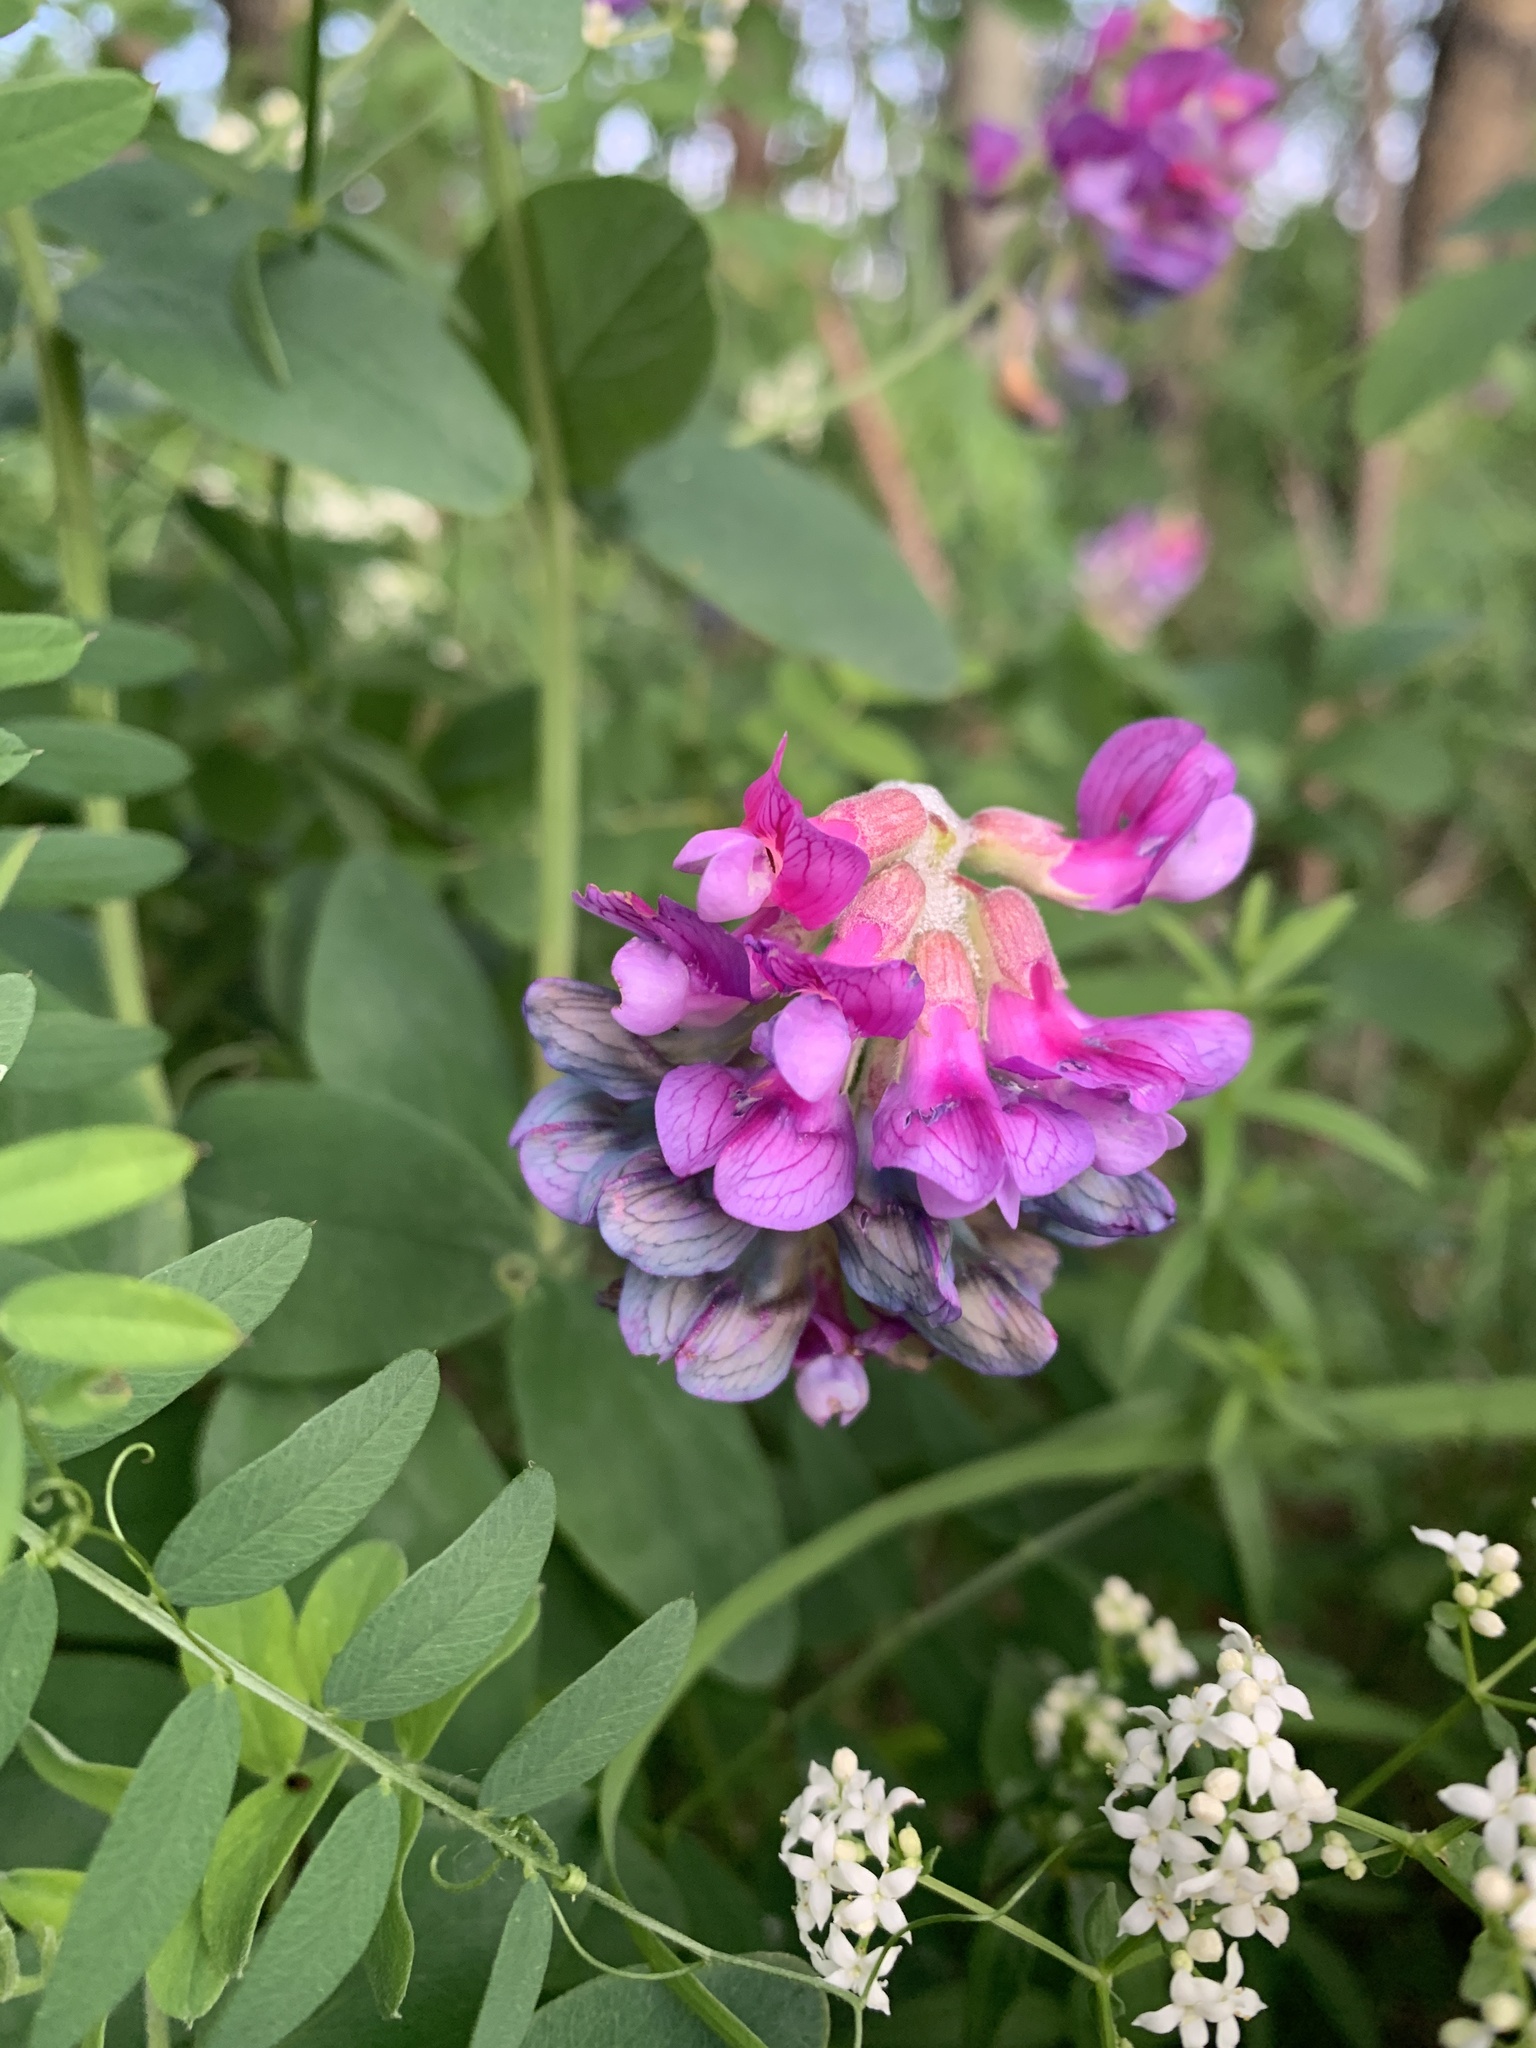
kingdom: Plantae
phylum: Tracheophyta
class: Magnoliopsida
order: Fabales
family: Fabaceae
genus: Lathyrus
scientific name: Lathyrus venosus
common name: Forest-pea
